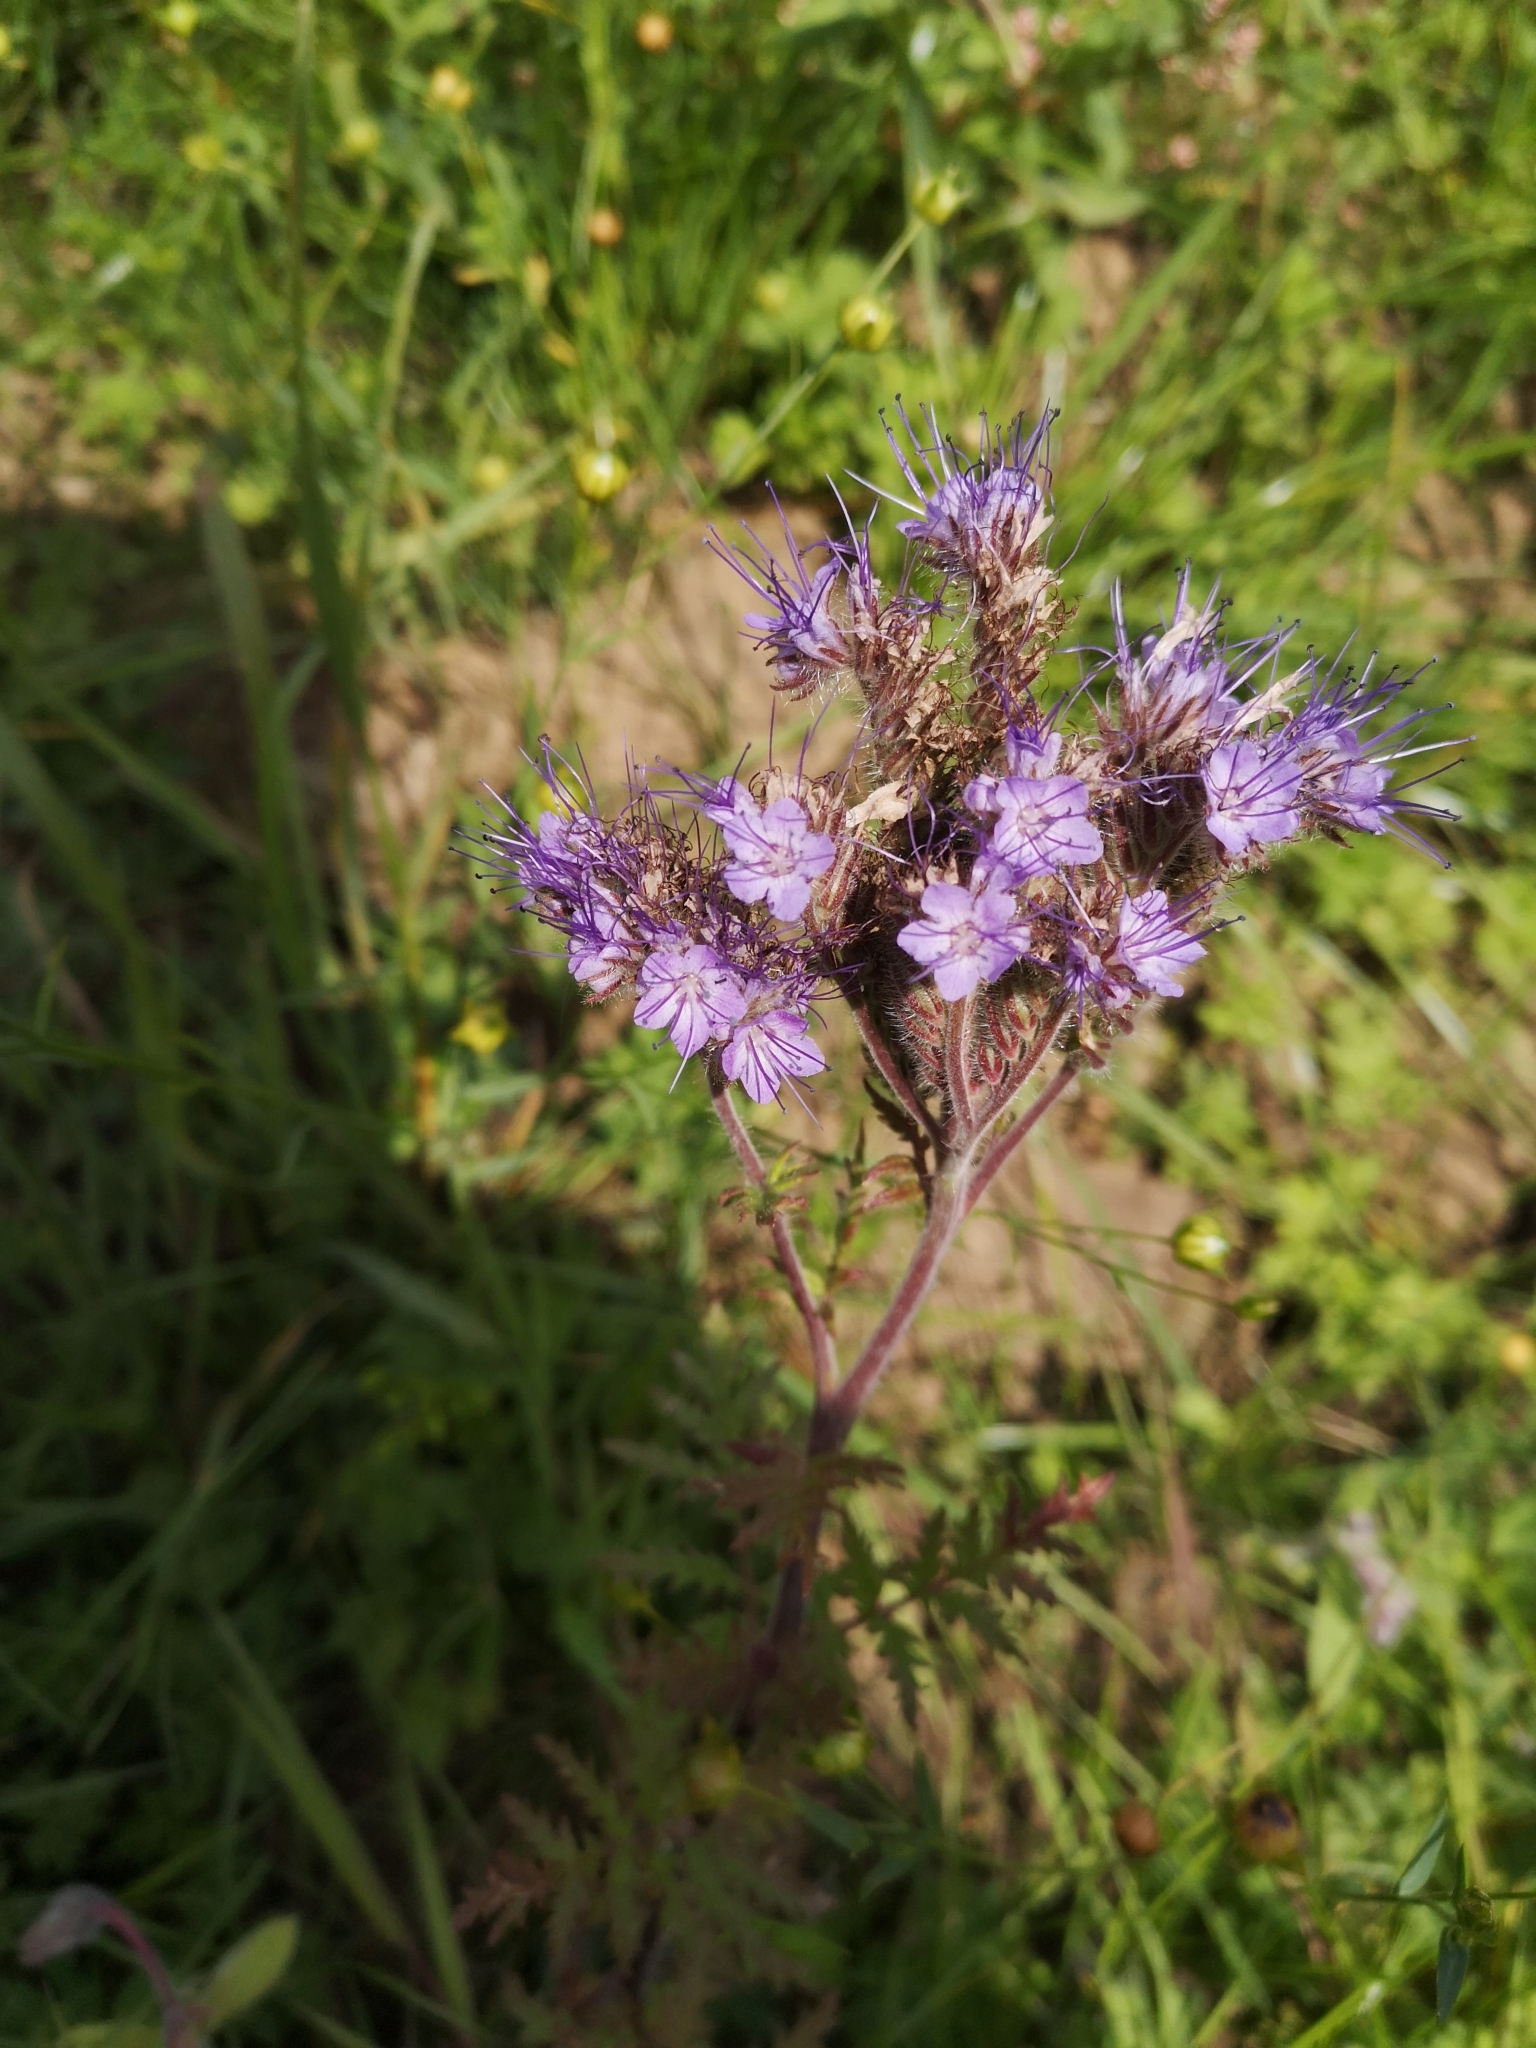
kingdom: Plantae
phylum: Tracheophyta
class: Magnoliopsida
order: Boraginales
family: Hydrophyllaceae
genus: Phacelia
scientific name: Phacelia tanacetifolia
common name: Phacelia
